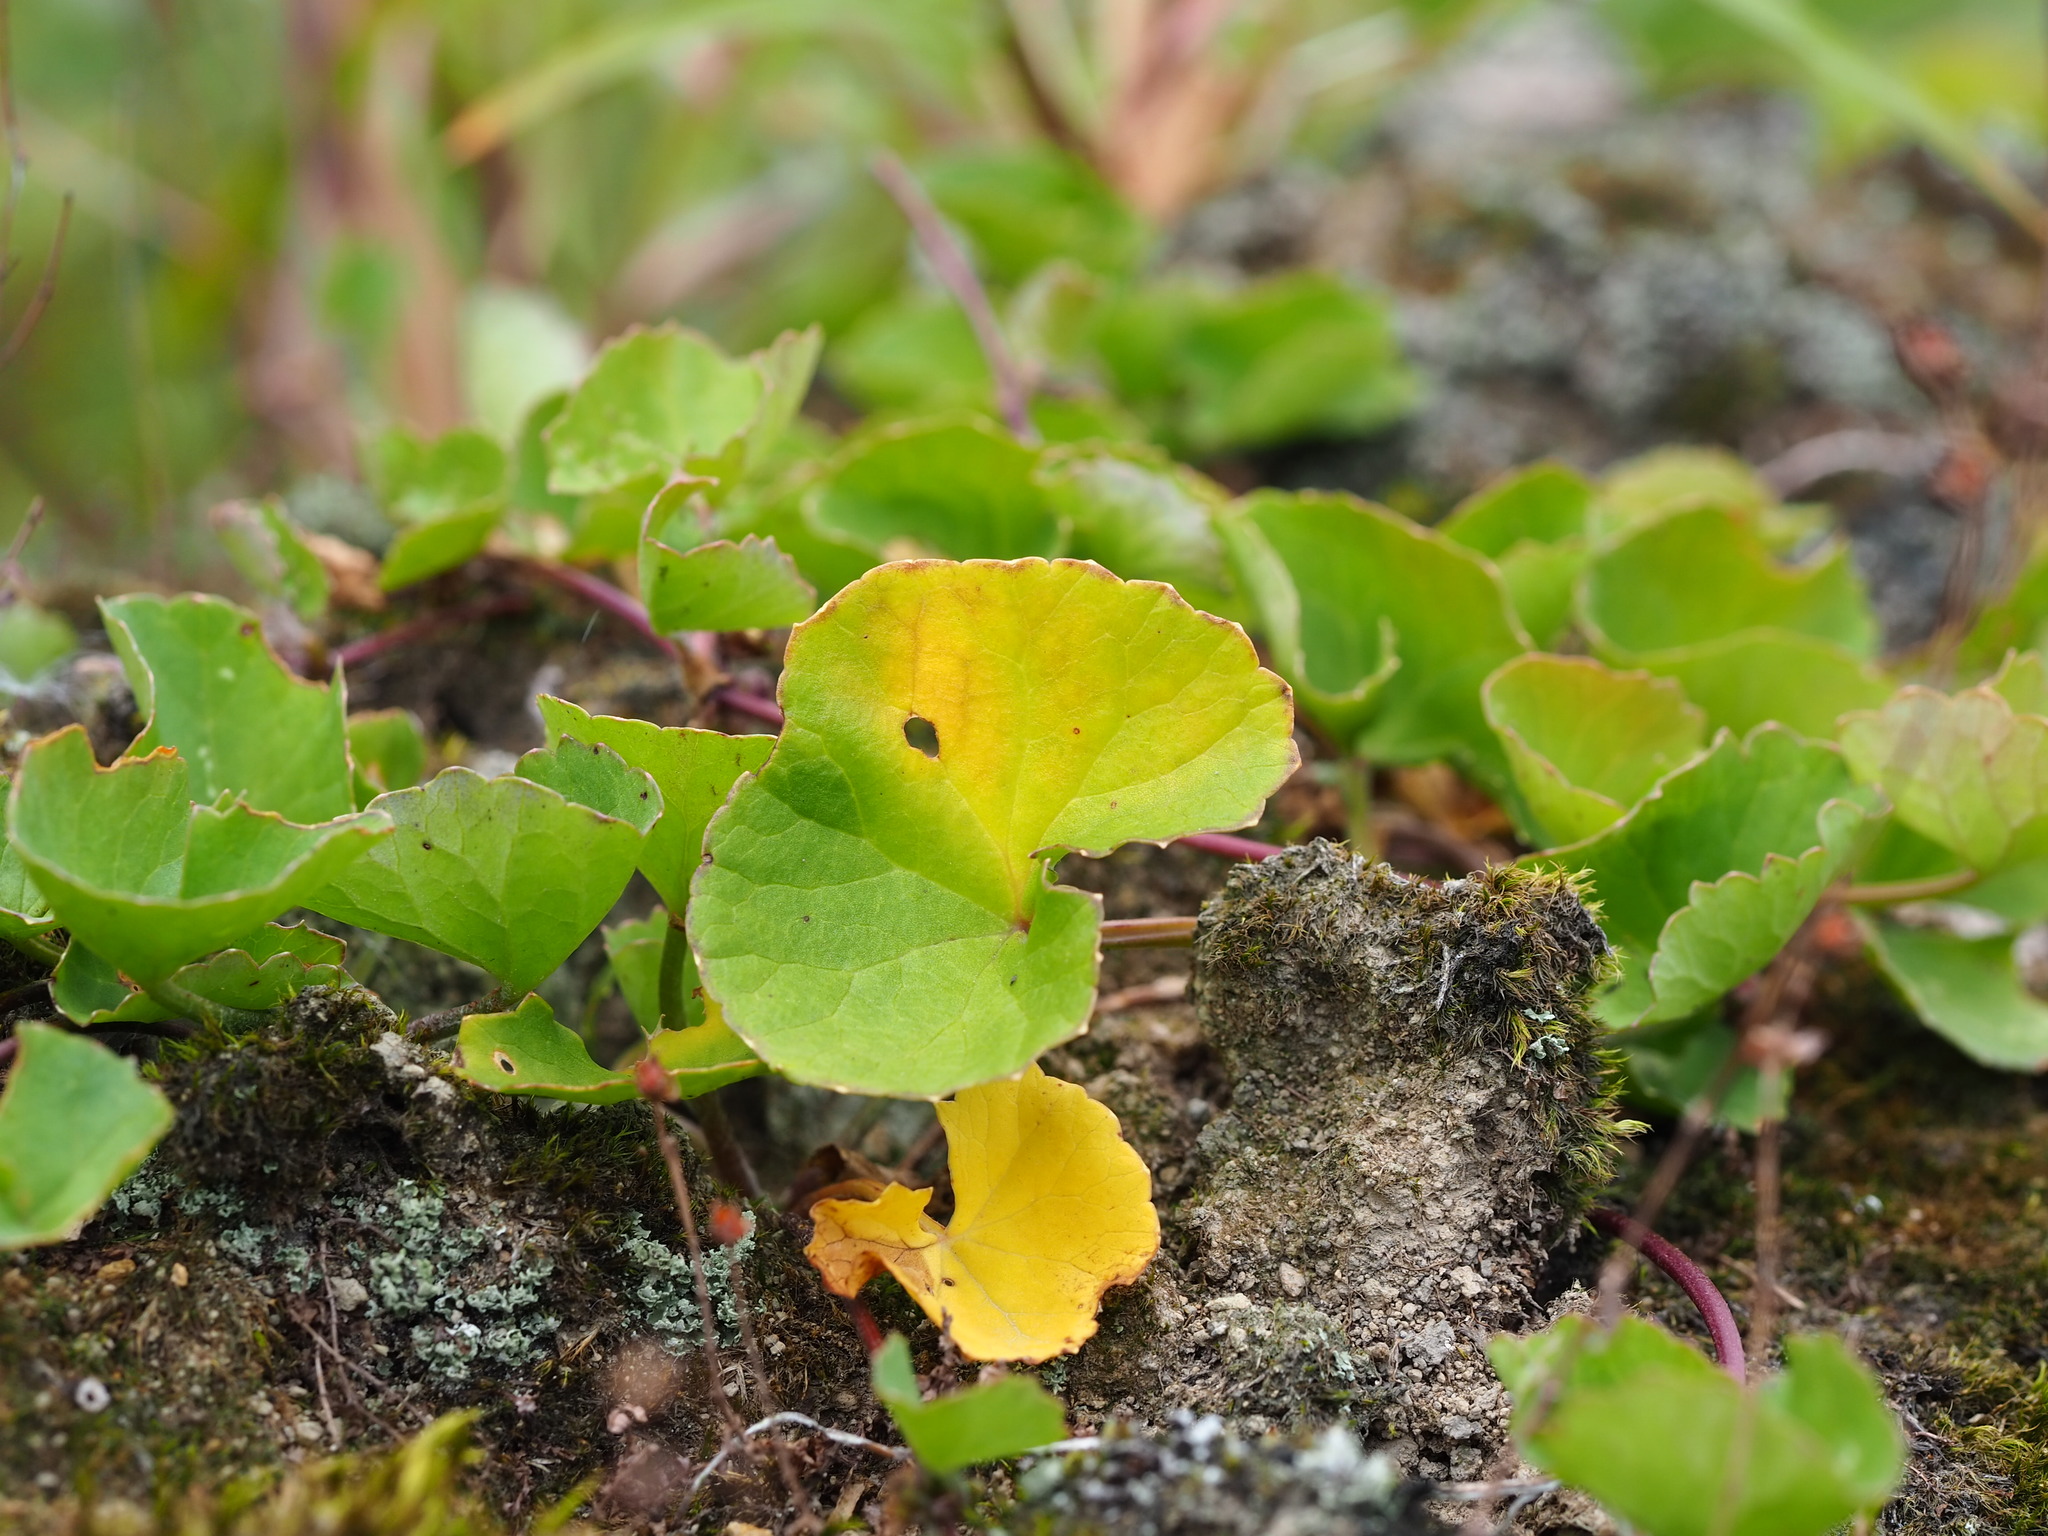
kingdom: Plantae
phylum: Tracheophyta
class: Magnoliopsida
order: Apiales
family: Apiaceae
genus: Centella
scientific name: Centella asiatica
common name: Spadeleaf
